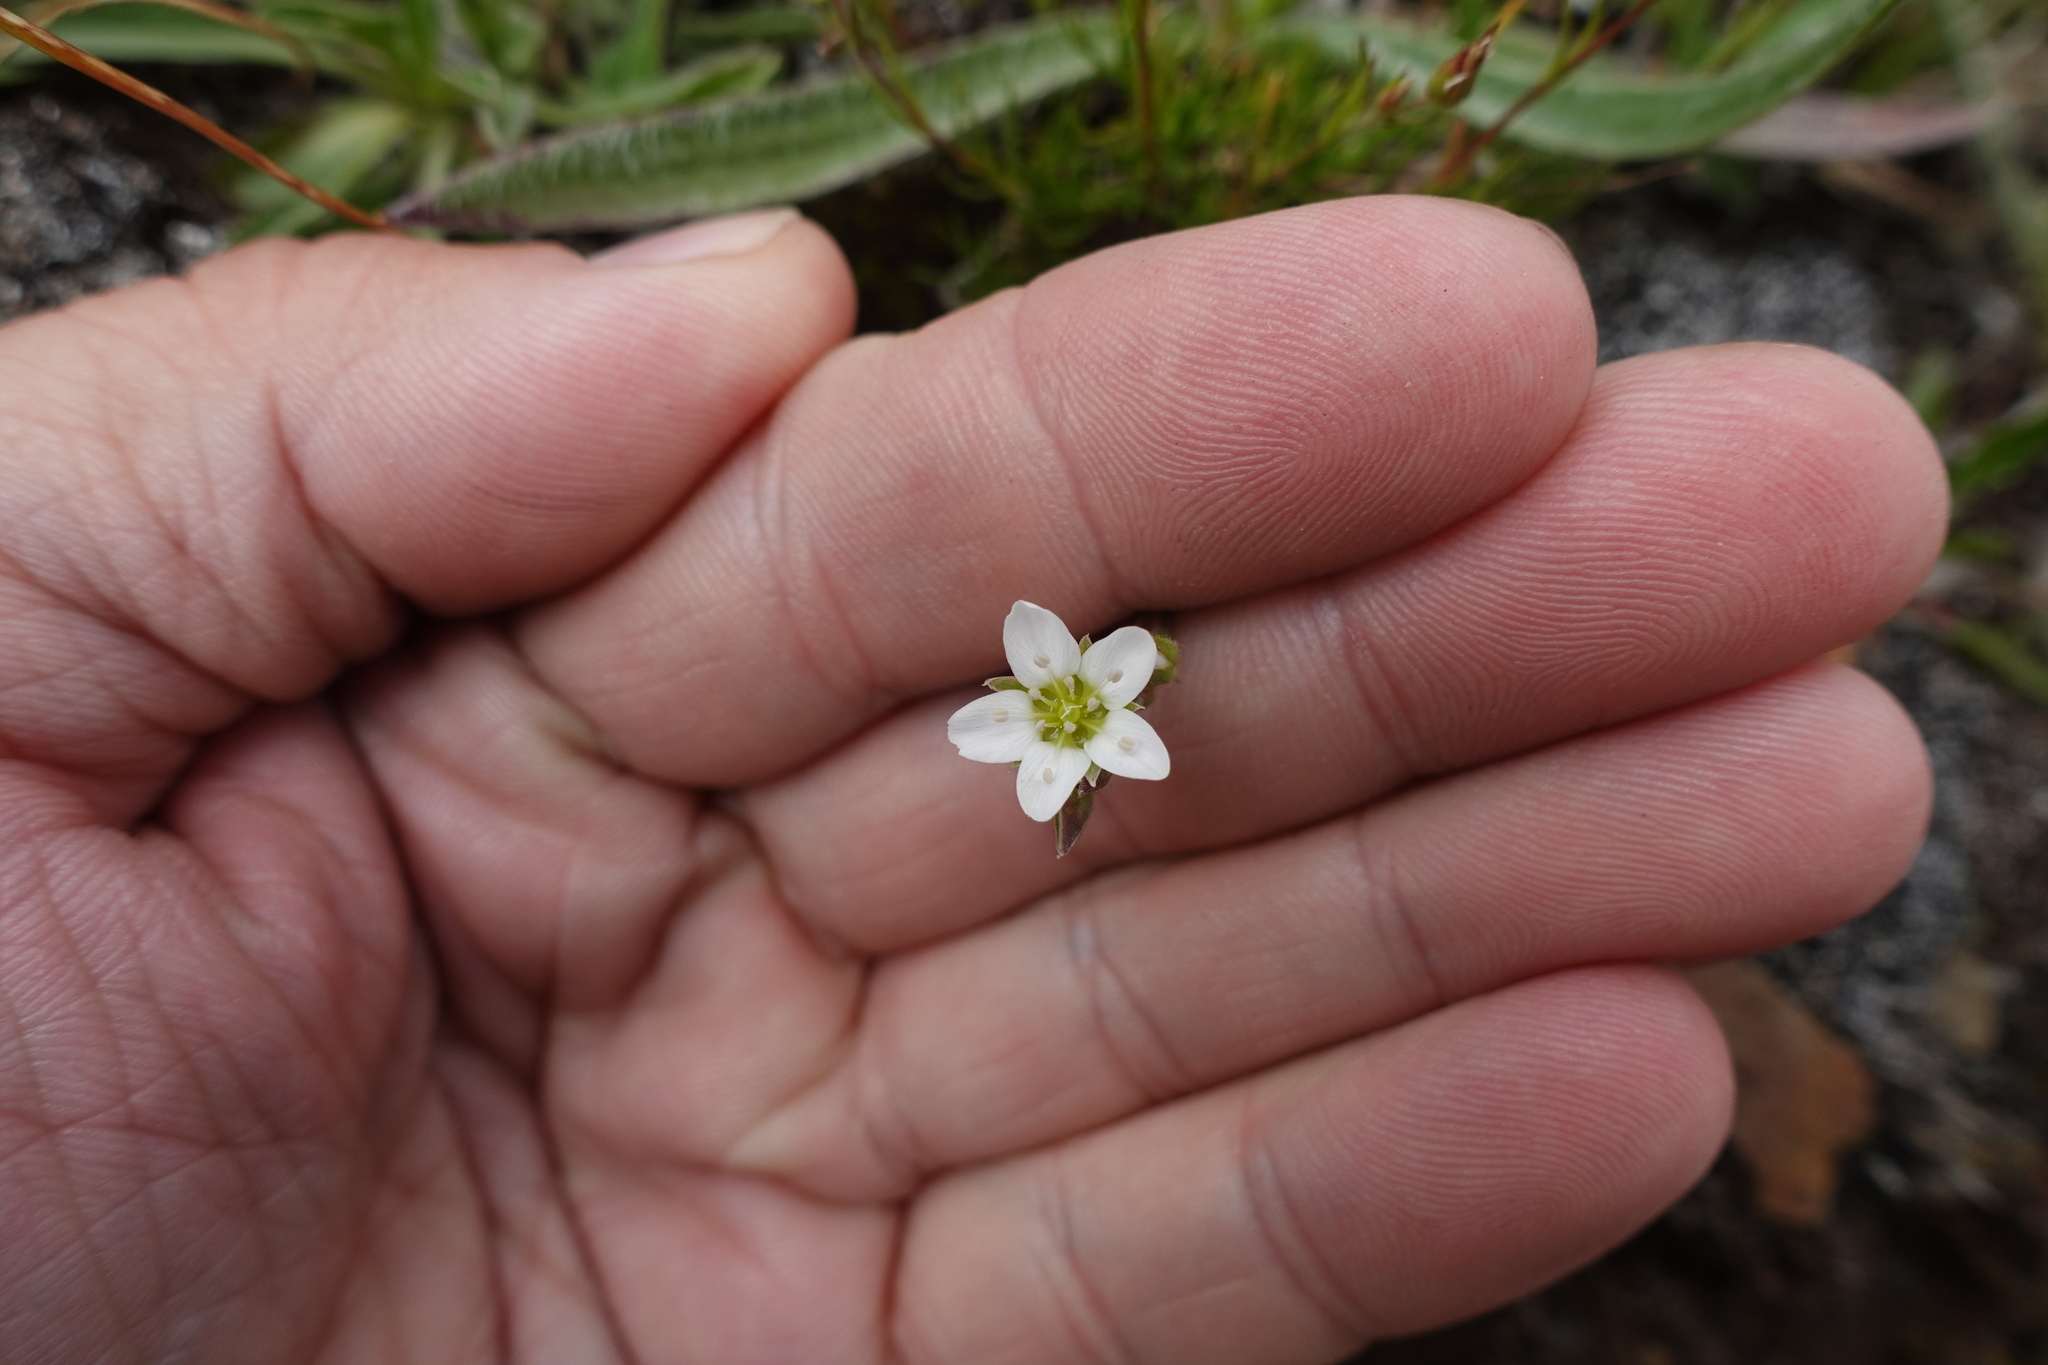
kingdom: Plantae
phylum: Tracheophyta
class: Magnoliopsida
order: Caryophyllales
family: Caryophyllaceae
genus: Minuartia
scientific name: Minuartia hirsuta
